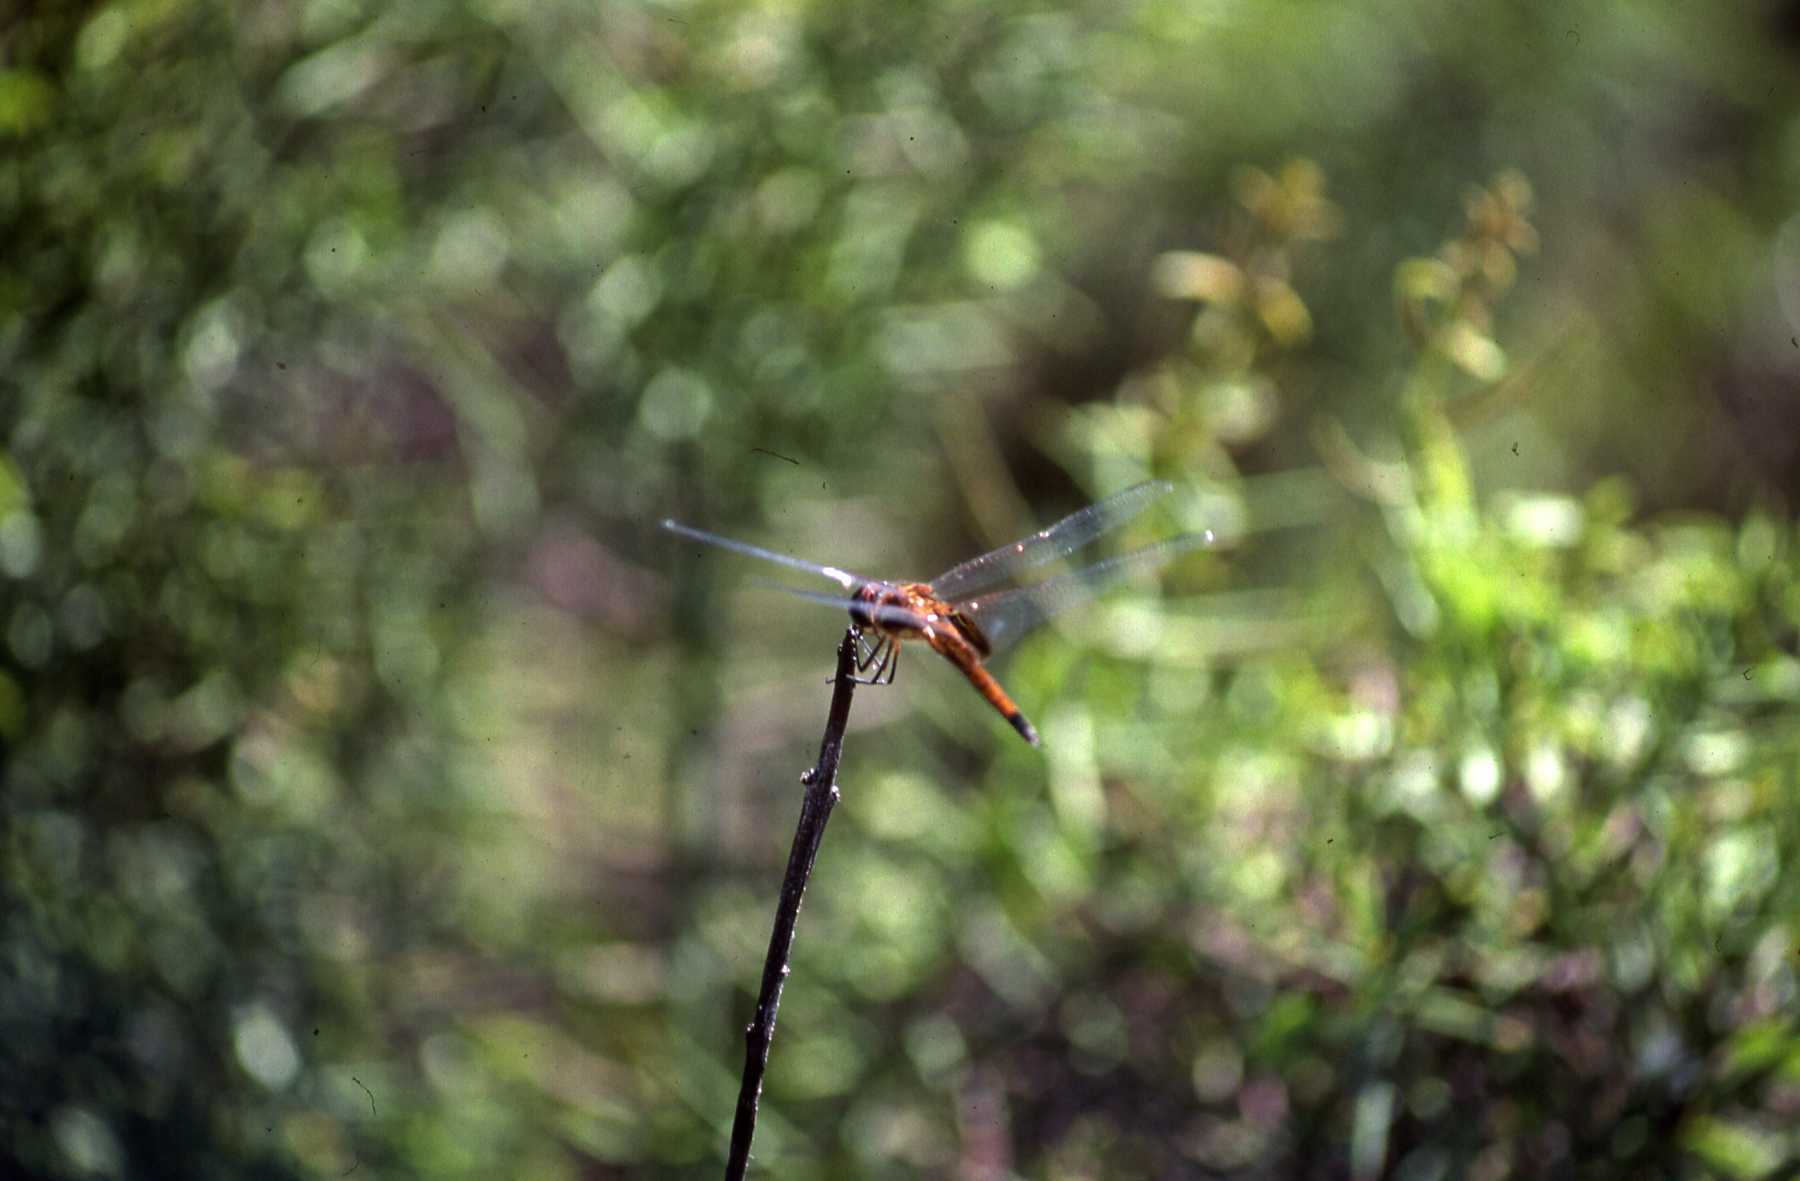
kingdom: Animalia
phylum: Arthropoda
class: Insecta
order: Odonata
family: Libellulidae
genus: Tramea
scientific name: Tramea darwini
